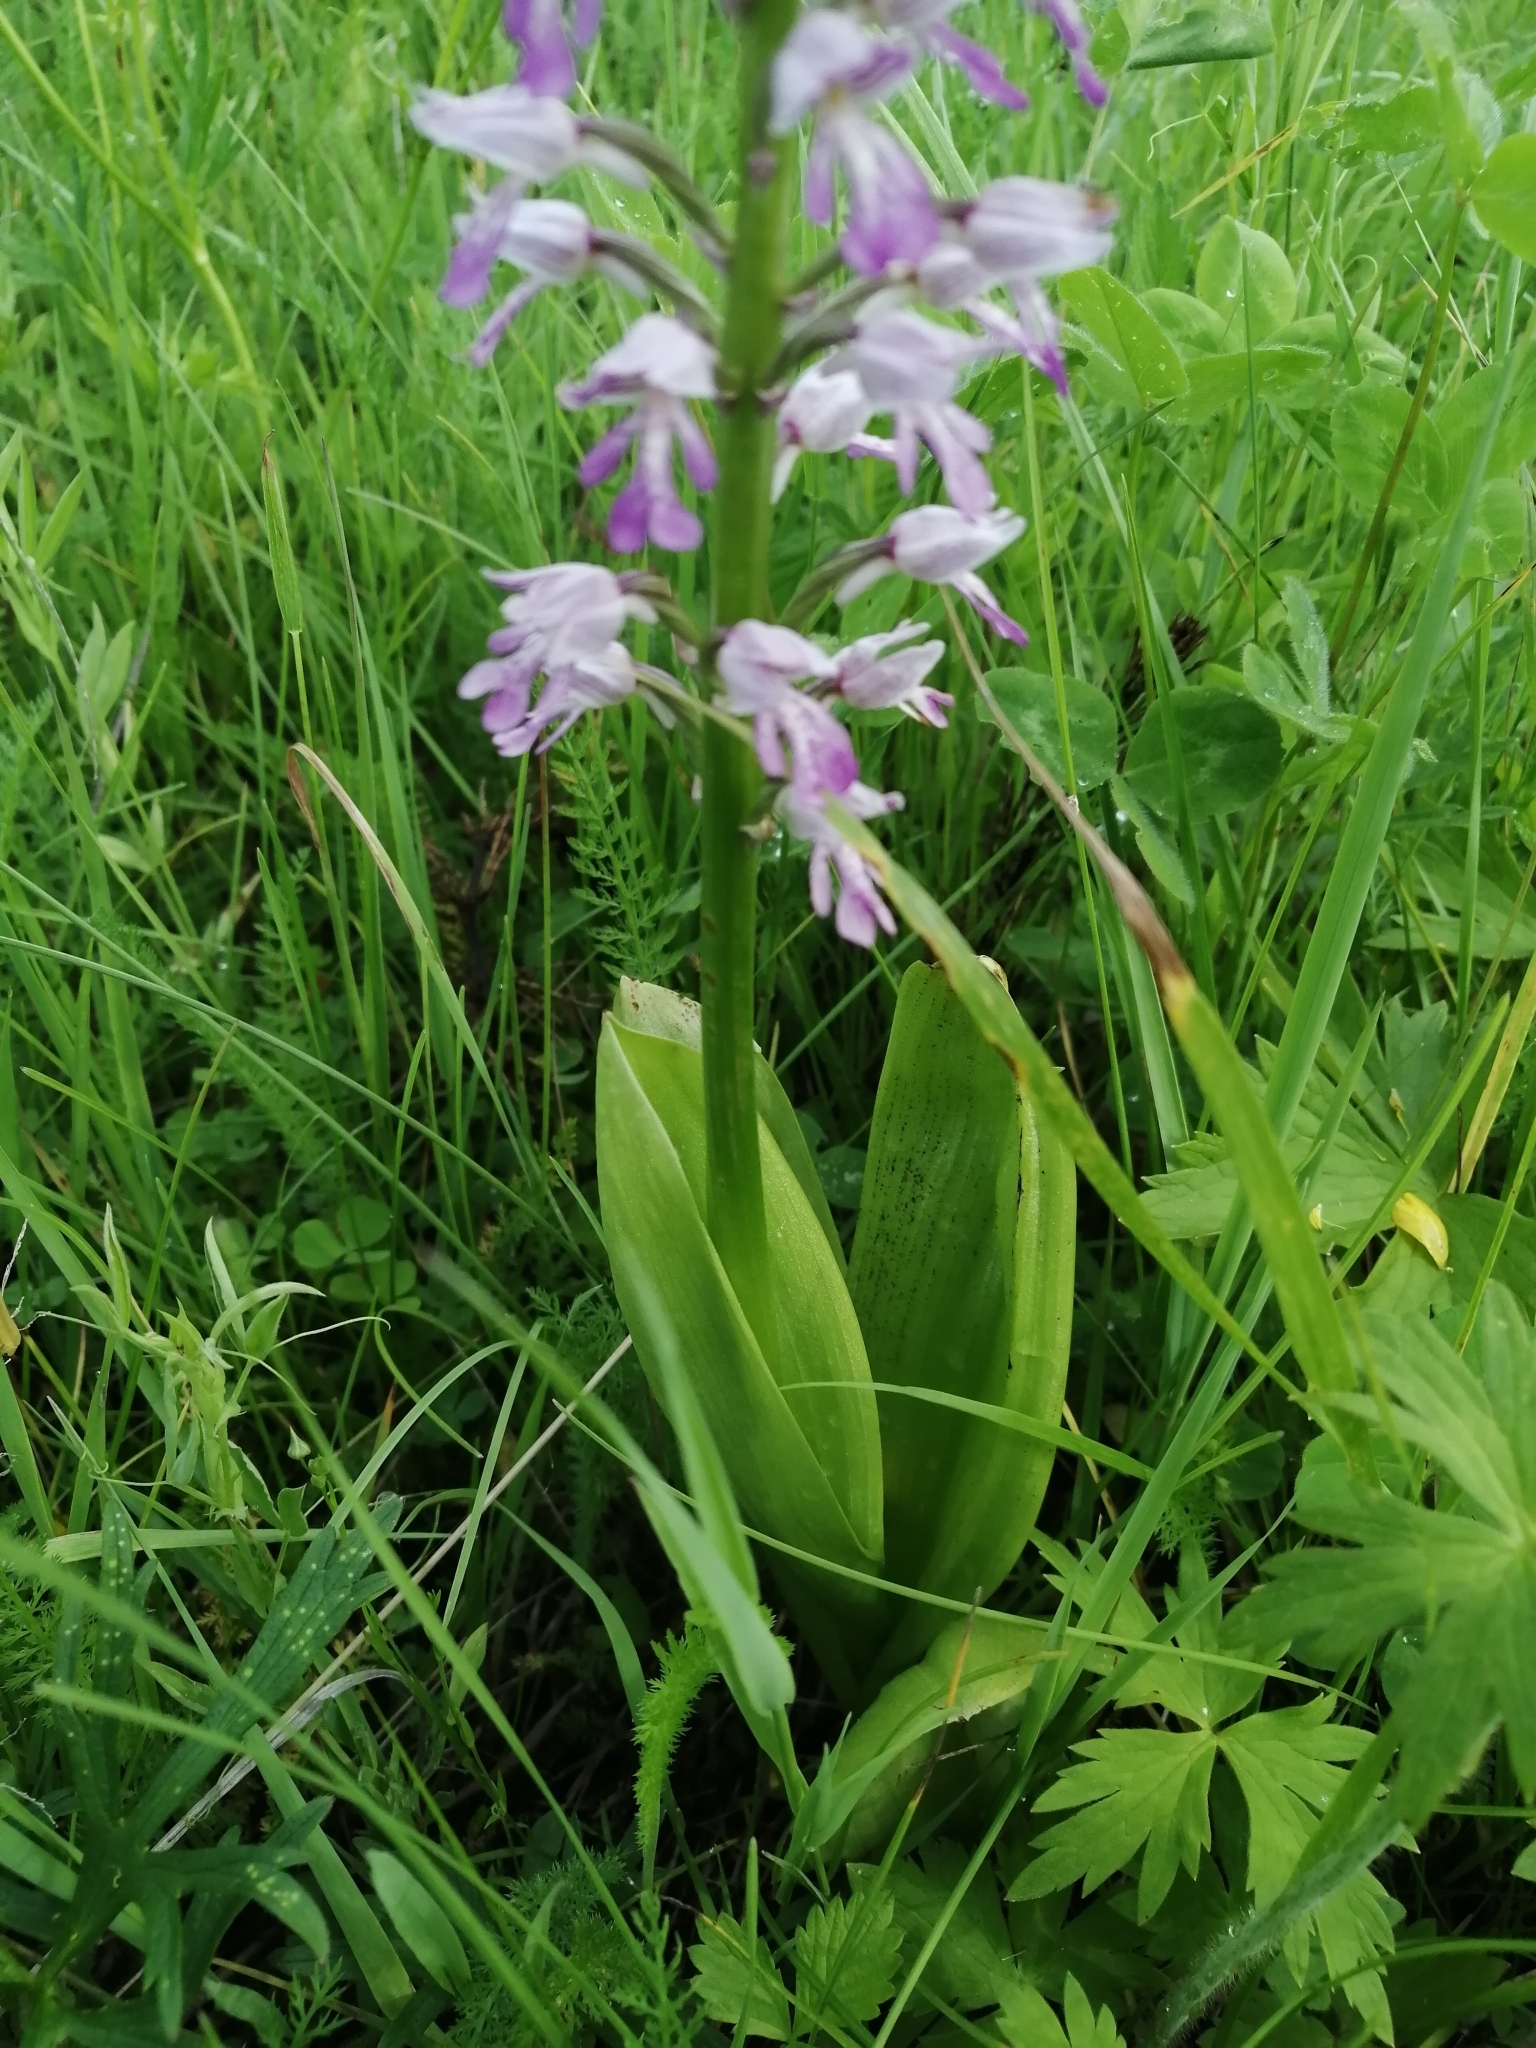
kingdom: Plantae
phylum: Tracheophyta
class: Liliopsida
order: Asparagales
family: Orchidaceae
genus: Orchis
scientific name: Orchis militaris
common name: Military orchid
